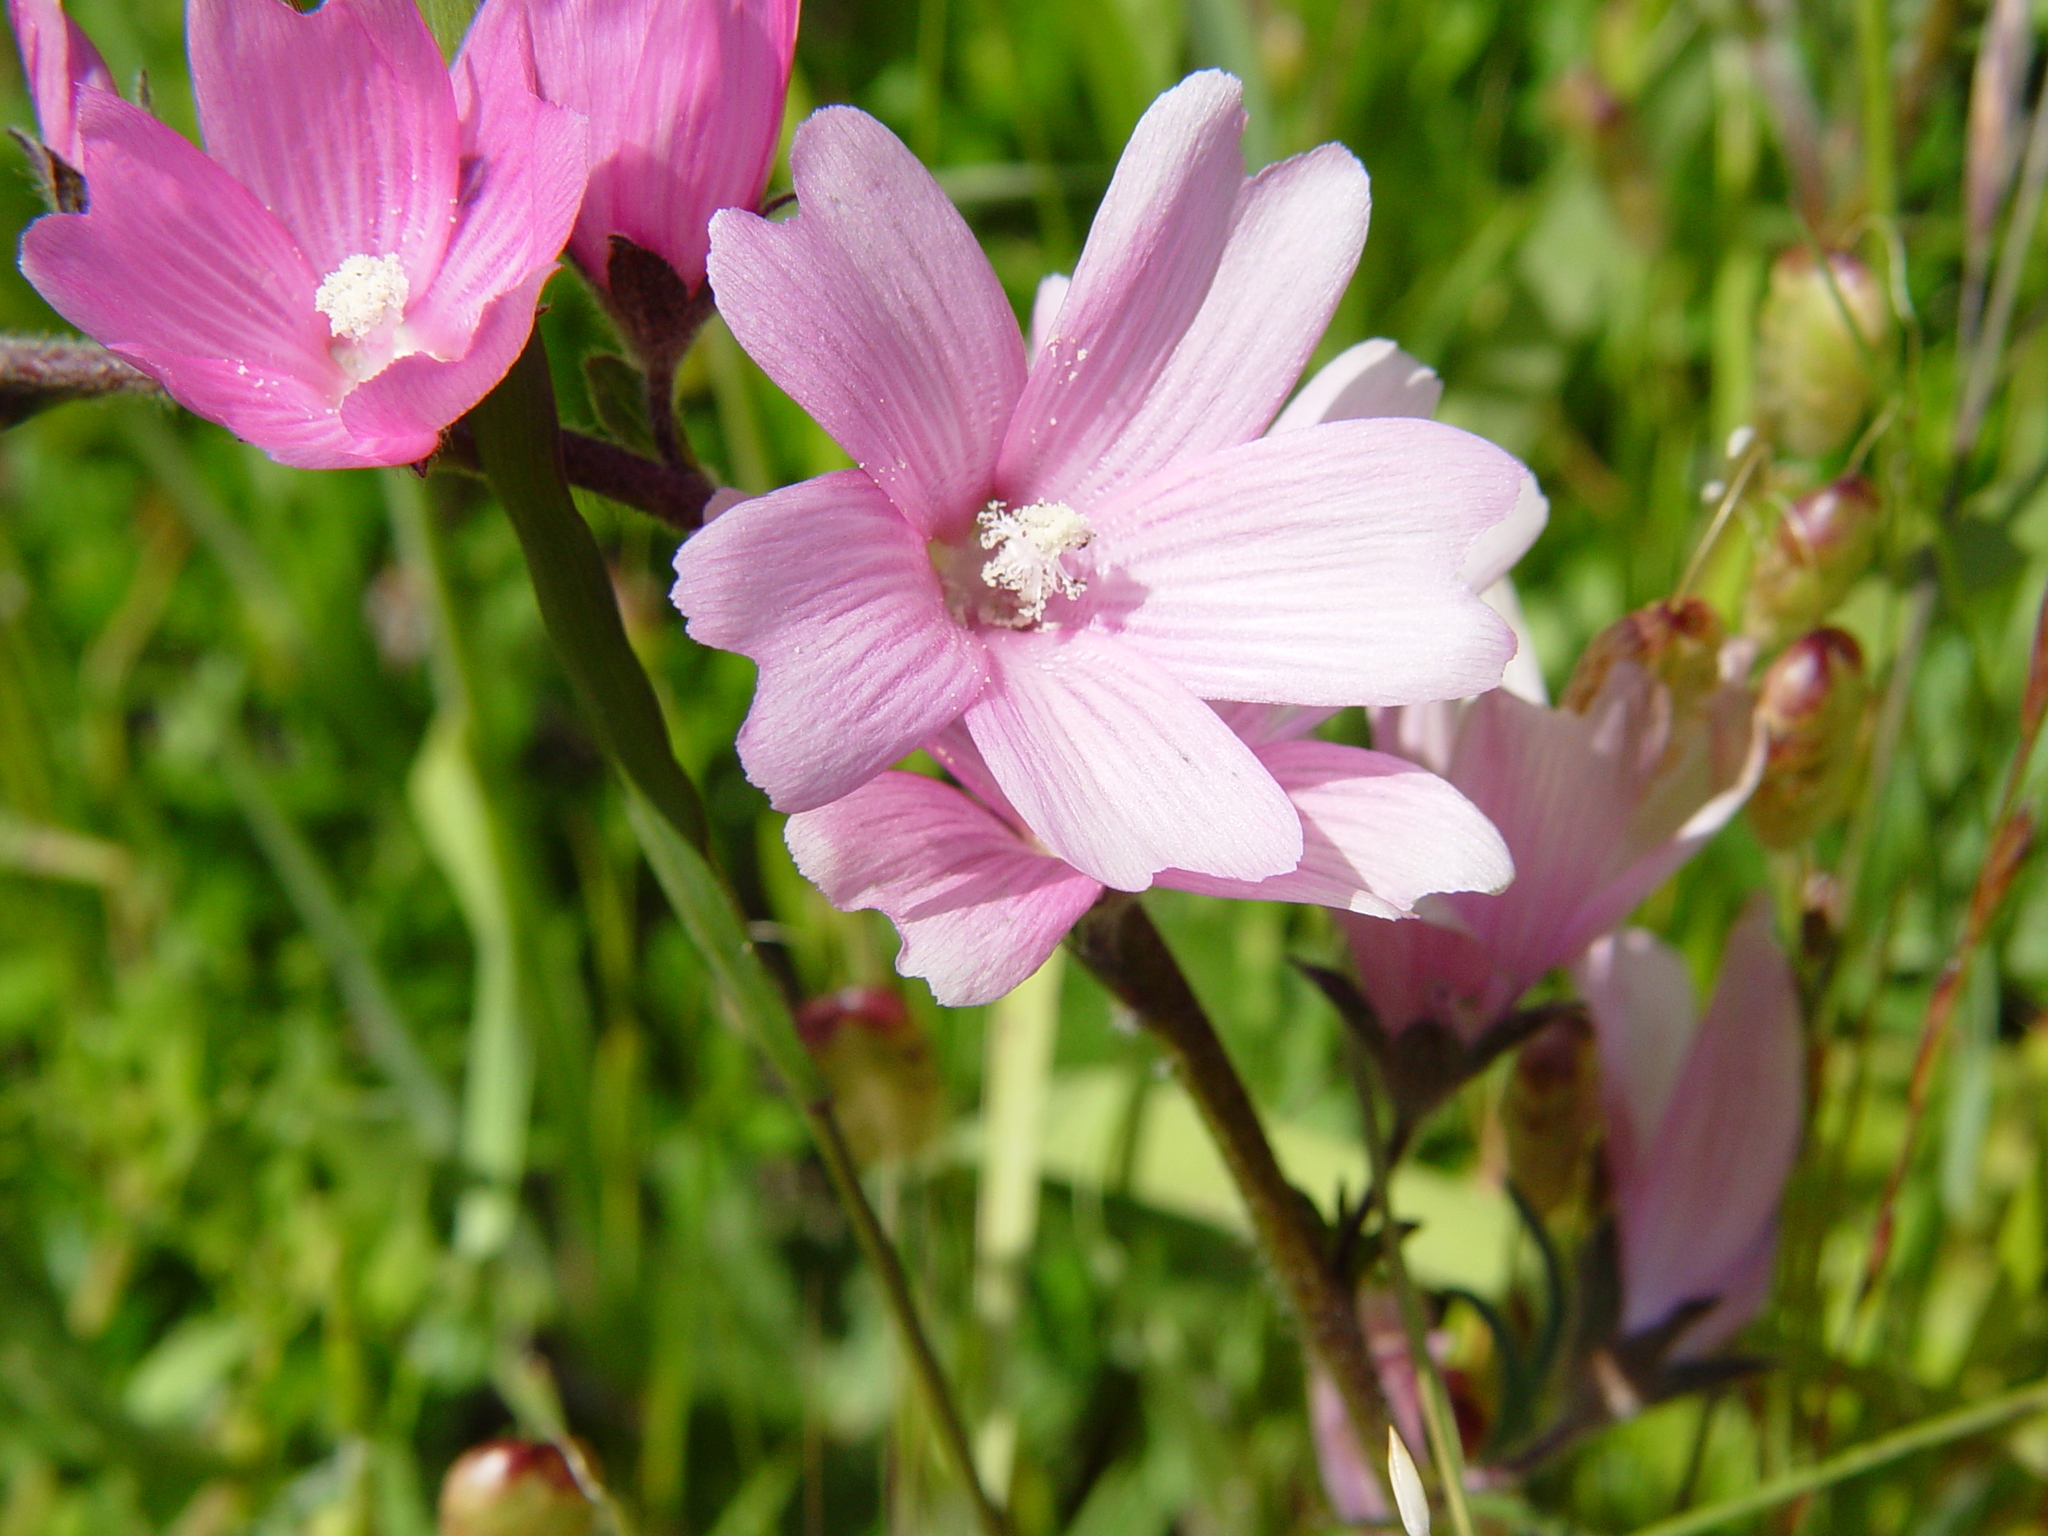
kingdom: Plantae
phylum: Tracheophyta
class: Magnoliopsida
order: Malvales
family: Malvaceae
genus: Sidalcea
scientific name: Sidalcea malviflora
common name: Greek mallow
